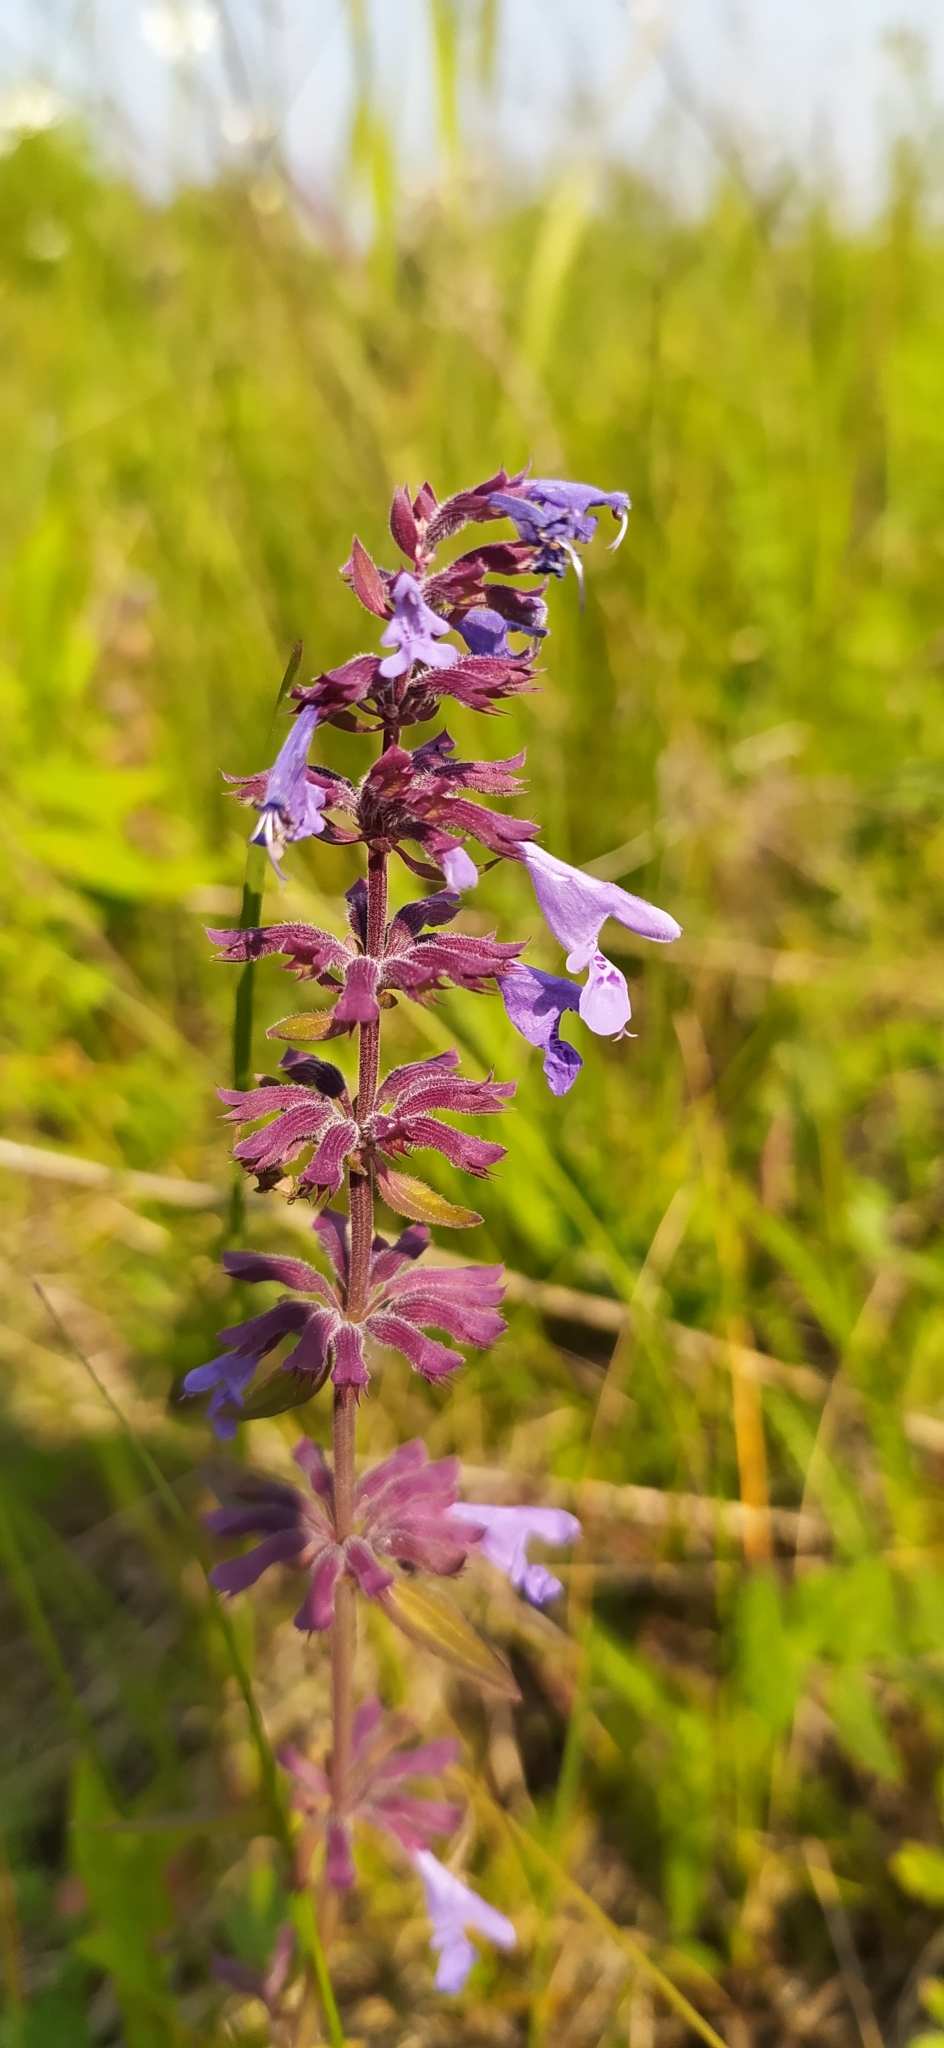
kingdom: Plantae
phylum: Tracheophyta
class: Magnoliopsida
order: Lamiales
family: Lamiaceae
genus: Dracocephalum
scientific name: Dracocephalum nutans
